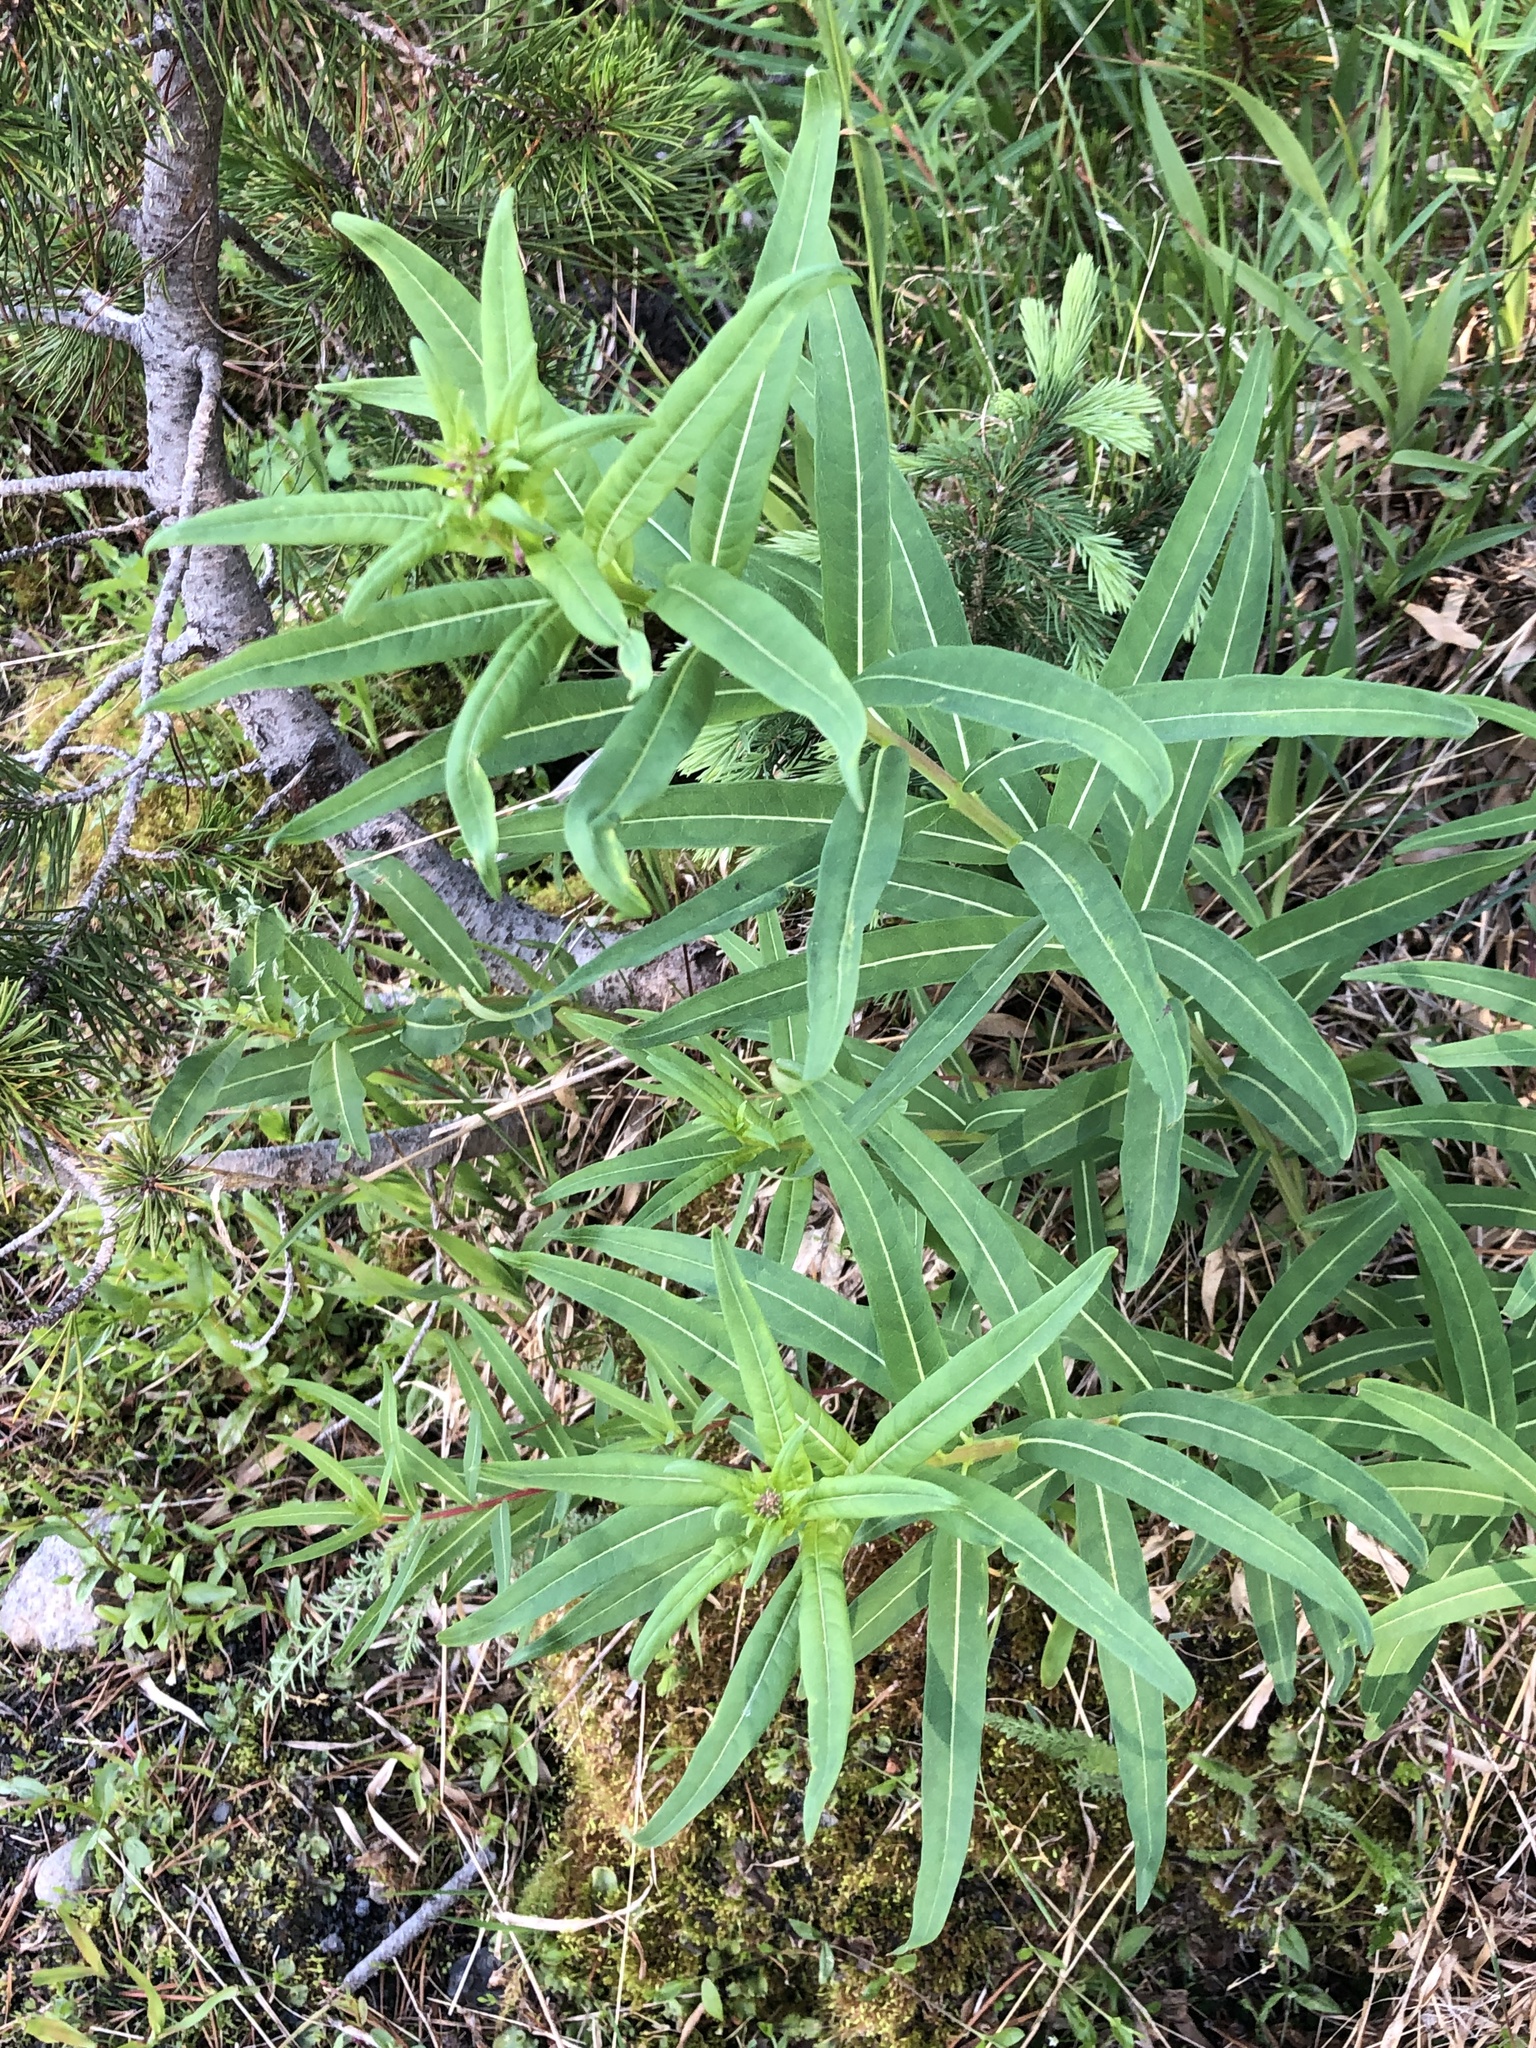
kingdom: Plantae
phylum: Tracheophyta
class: Magnoliopsida
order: Myrtales
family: Onagraceae
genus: Chamaenerion
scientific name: Chamaenerion angustifolium
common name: Fireweed
